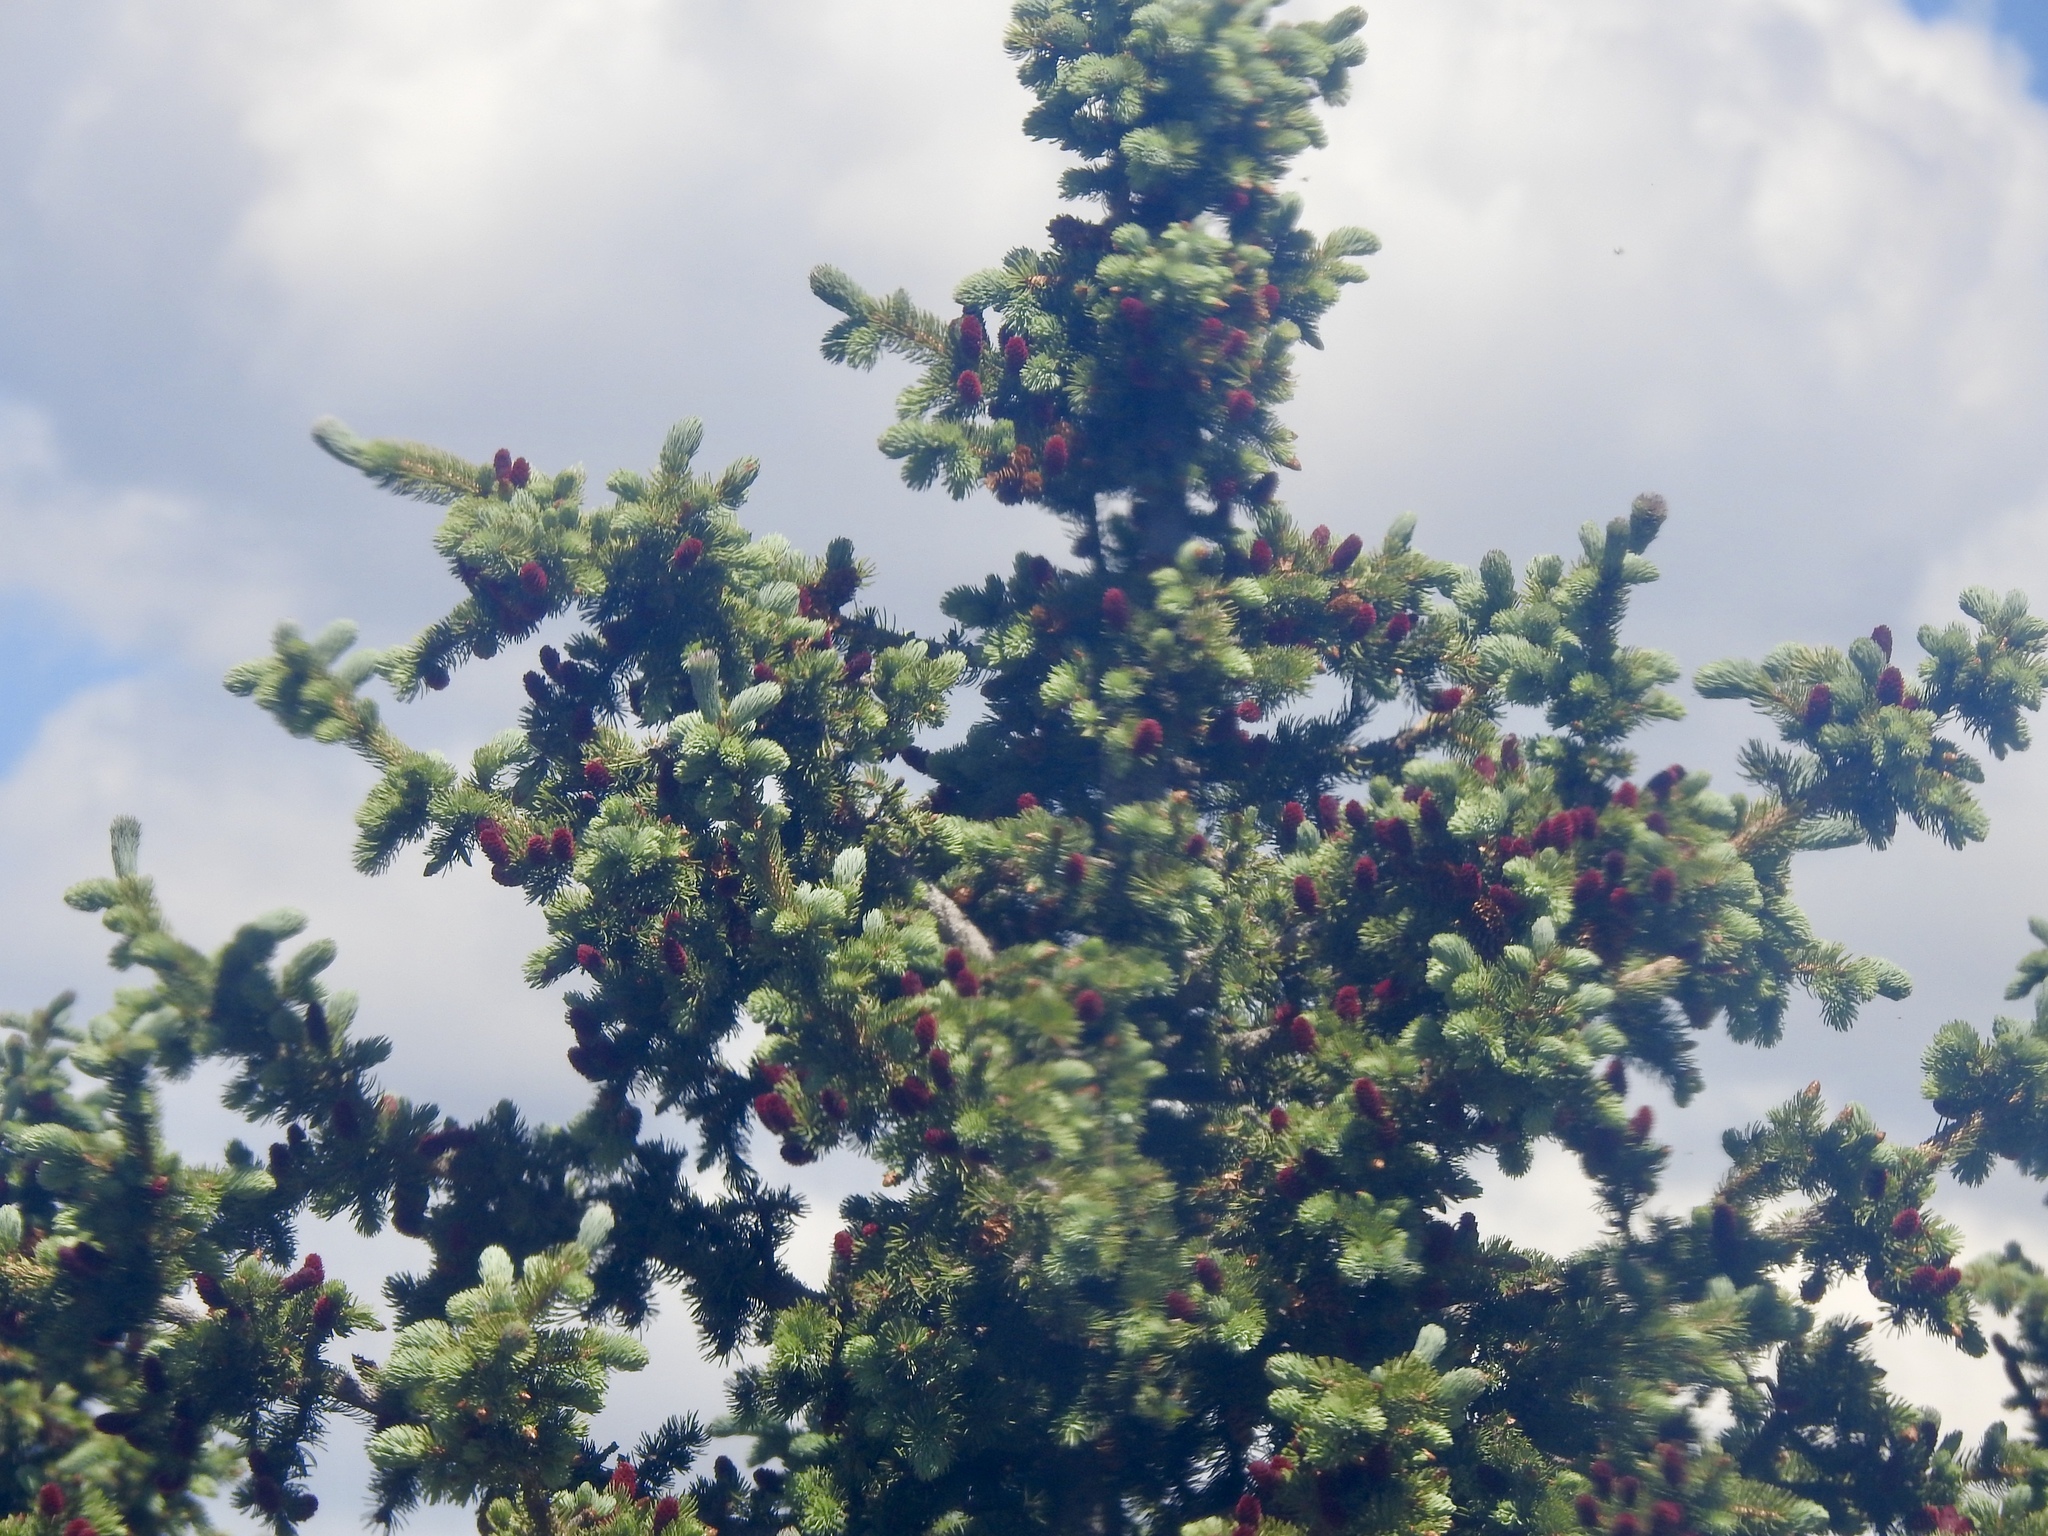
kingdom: Plantae
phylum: Tracheophyta
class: Pinopsida
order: Pinales
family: Pinaceae
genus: Picea
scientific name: Picea engelmannii
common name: Engelmann spruce
